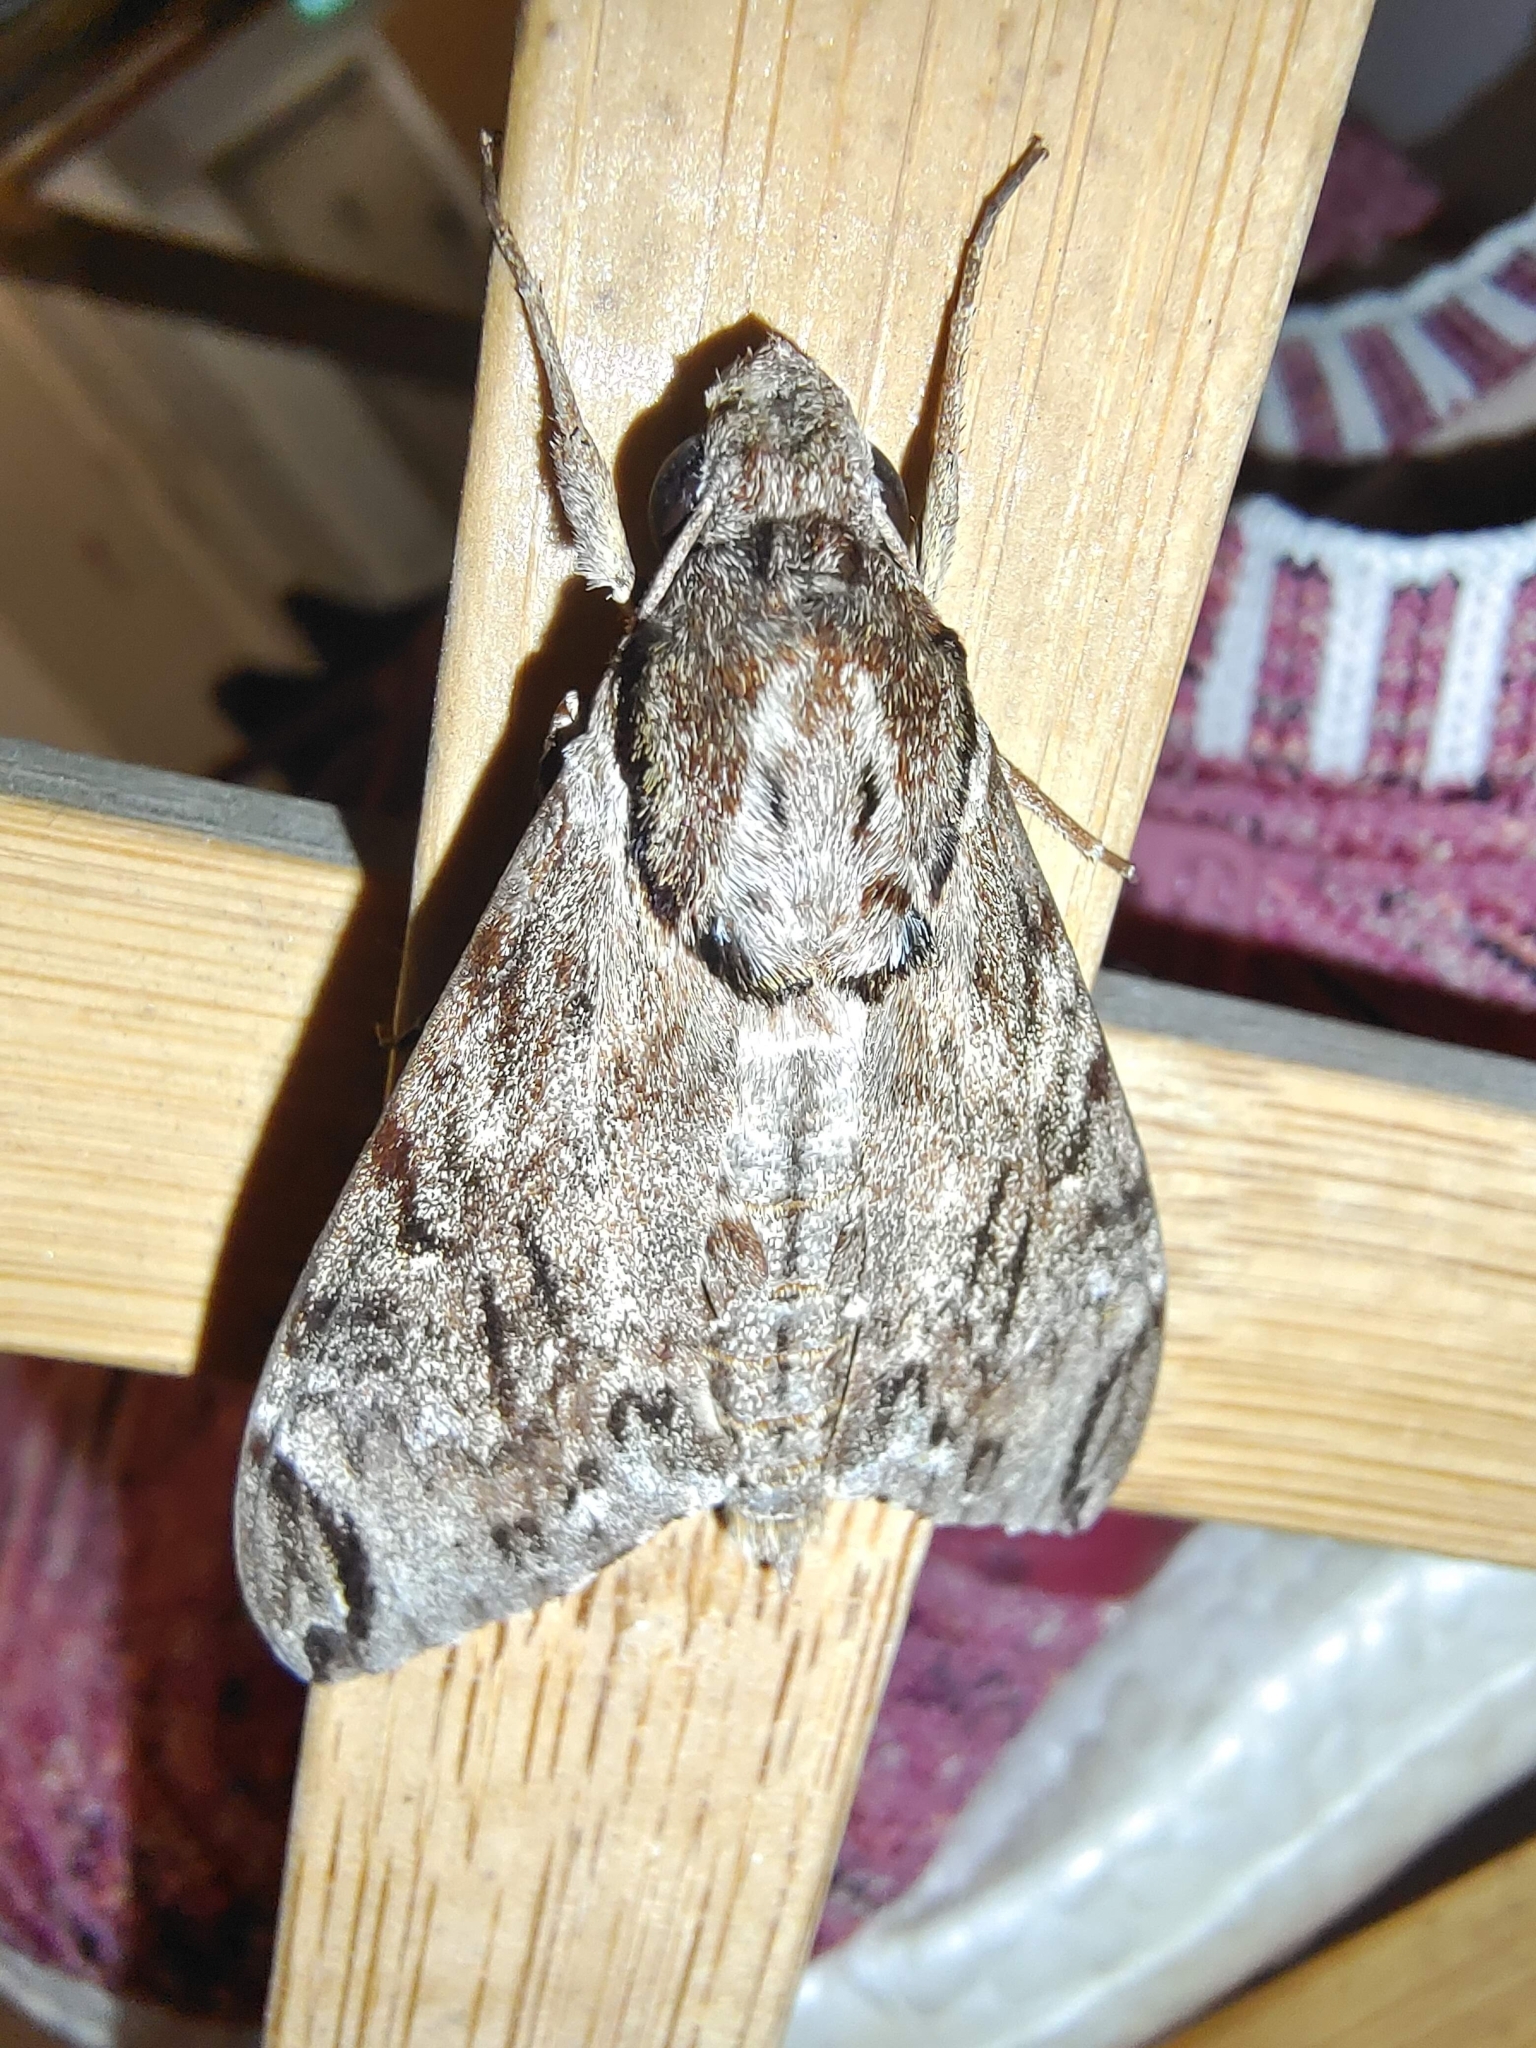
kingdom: Animalia
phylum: Arthropoda
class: Insecta
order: Lepidoptera
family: Sphingidae
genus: Psilogramma
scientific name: Psilogramma discistriga
